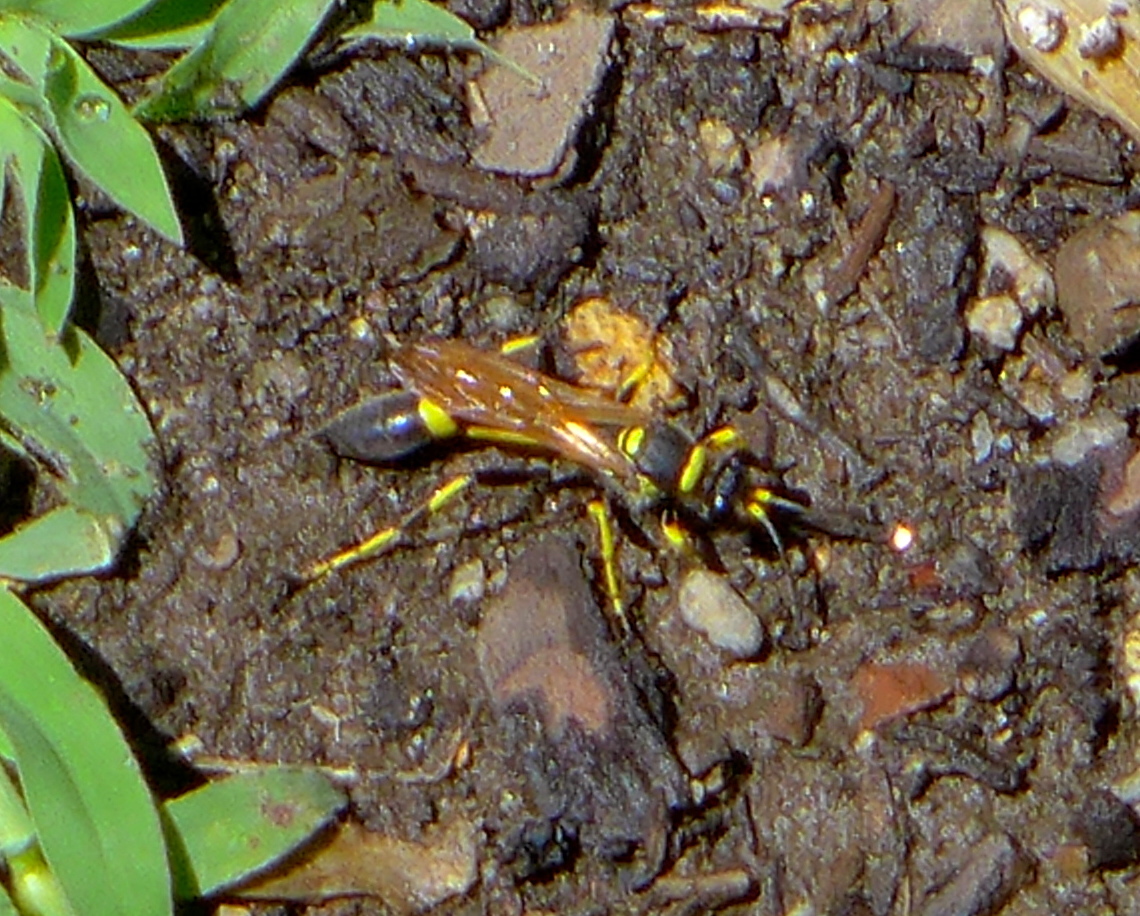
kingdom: Animalia
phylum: Arthropoda
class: Insecta
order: Hymenoptera
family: Sphecidae
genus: Sceliphron
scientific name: Sceliphron caementarium
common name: Mud dauber
